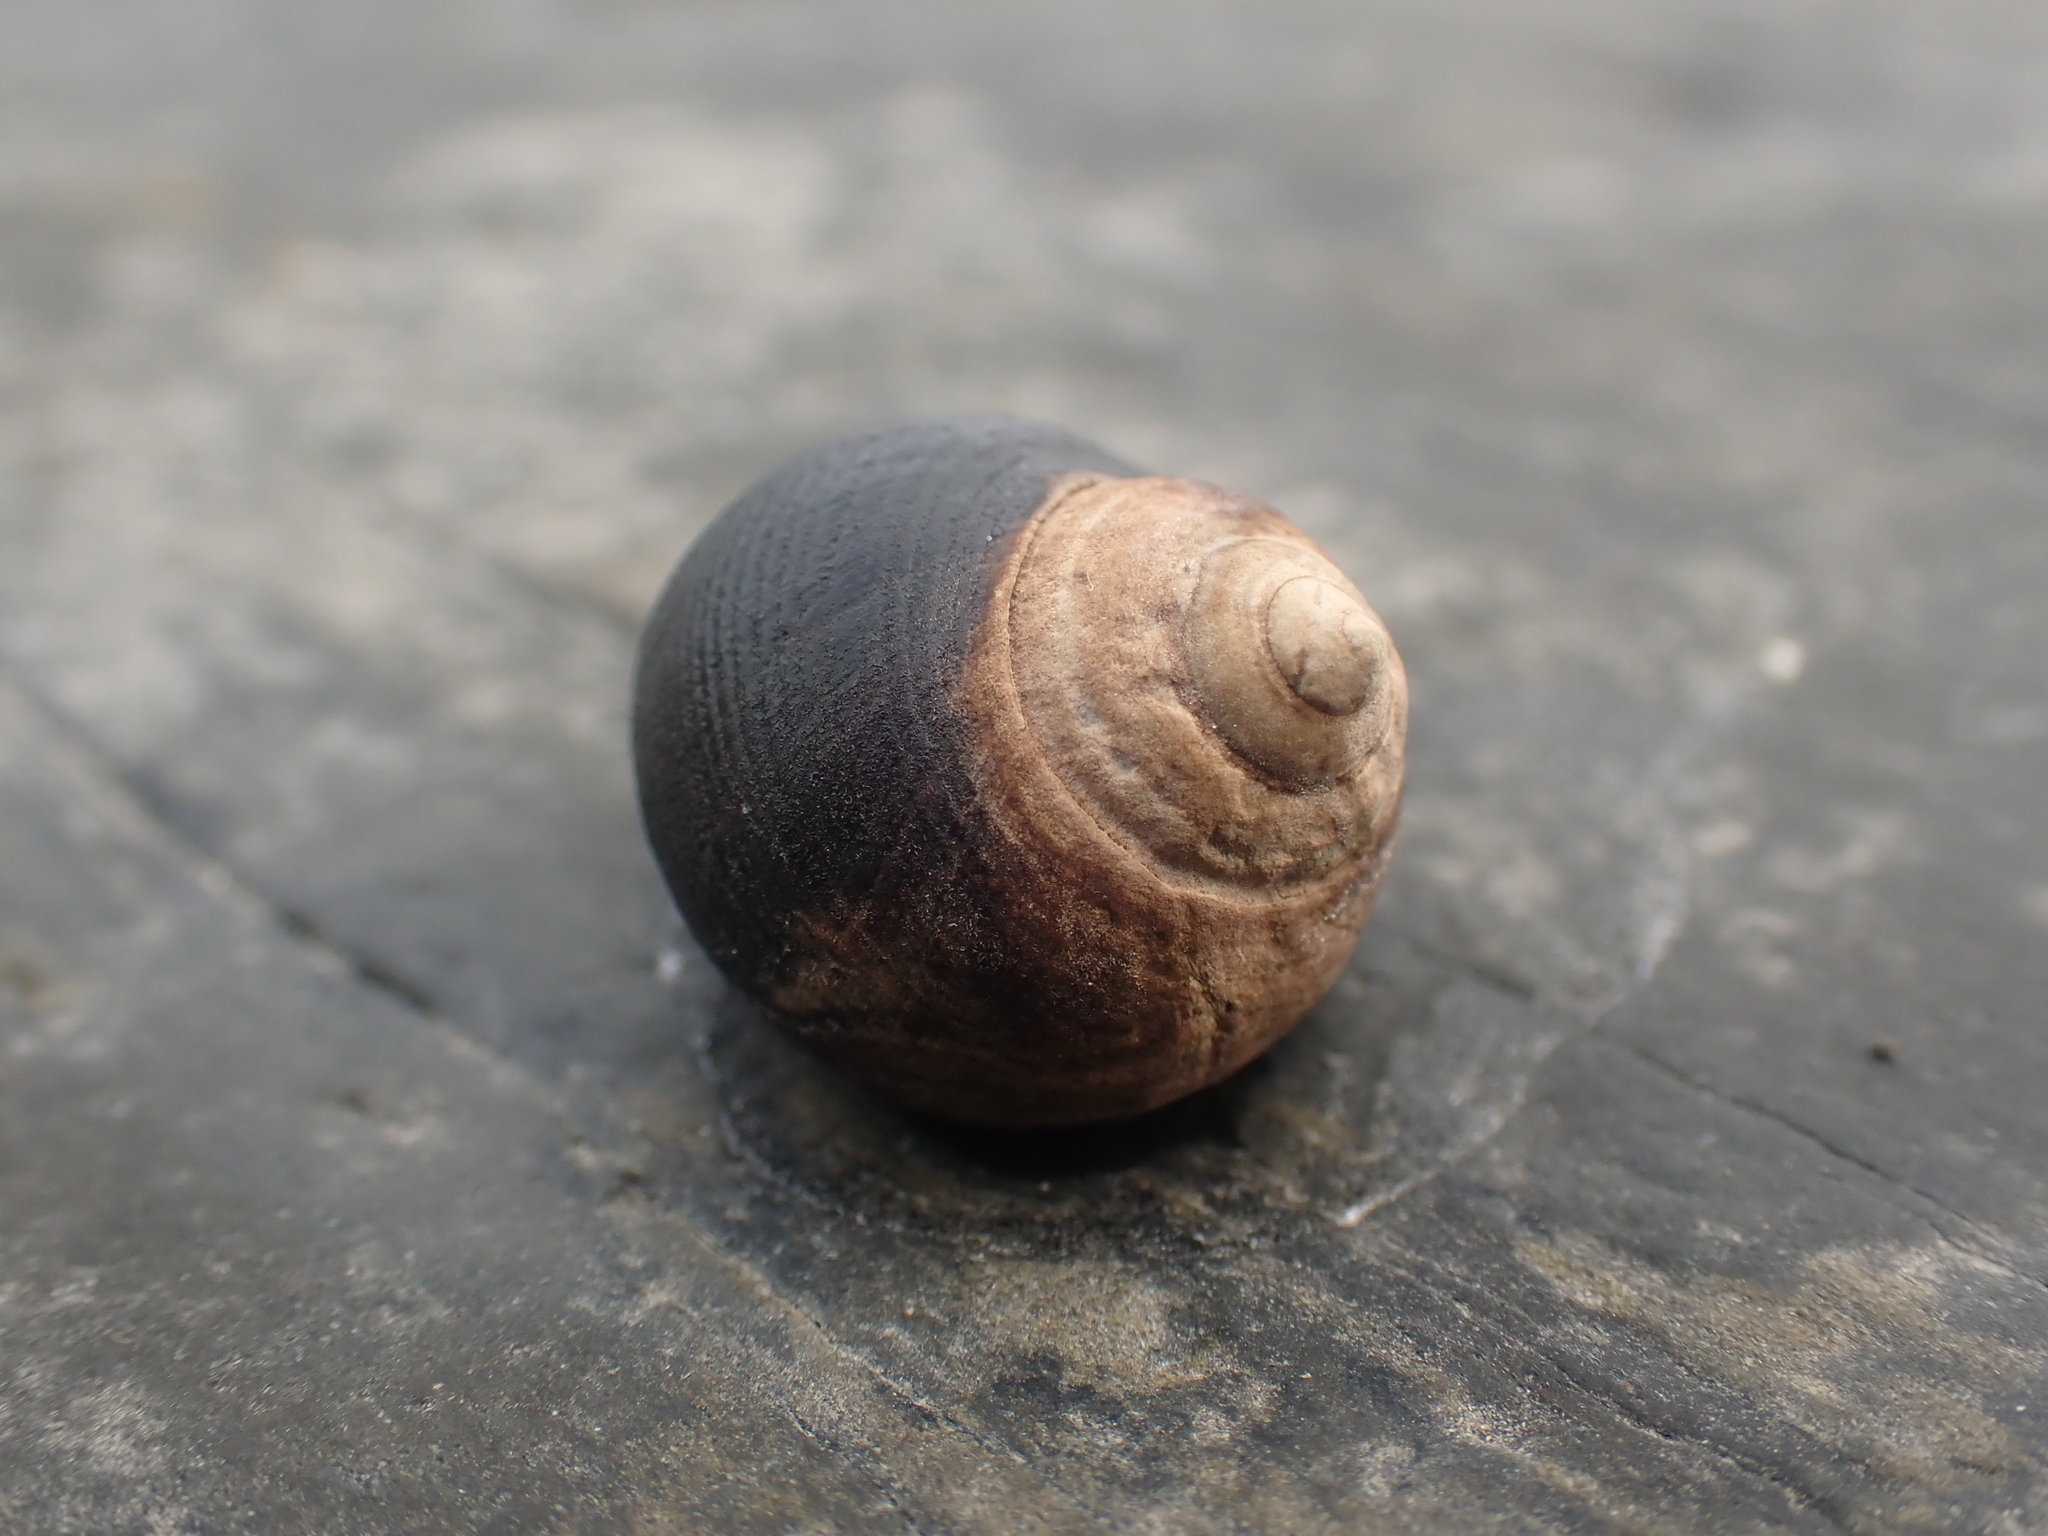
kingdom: Animalia
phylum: Mollusca
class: Gastropoda
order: Littorinimorpha
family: Littorinidae
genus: Littorina
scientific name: Littorina littorea
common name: Common periwinkle
